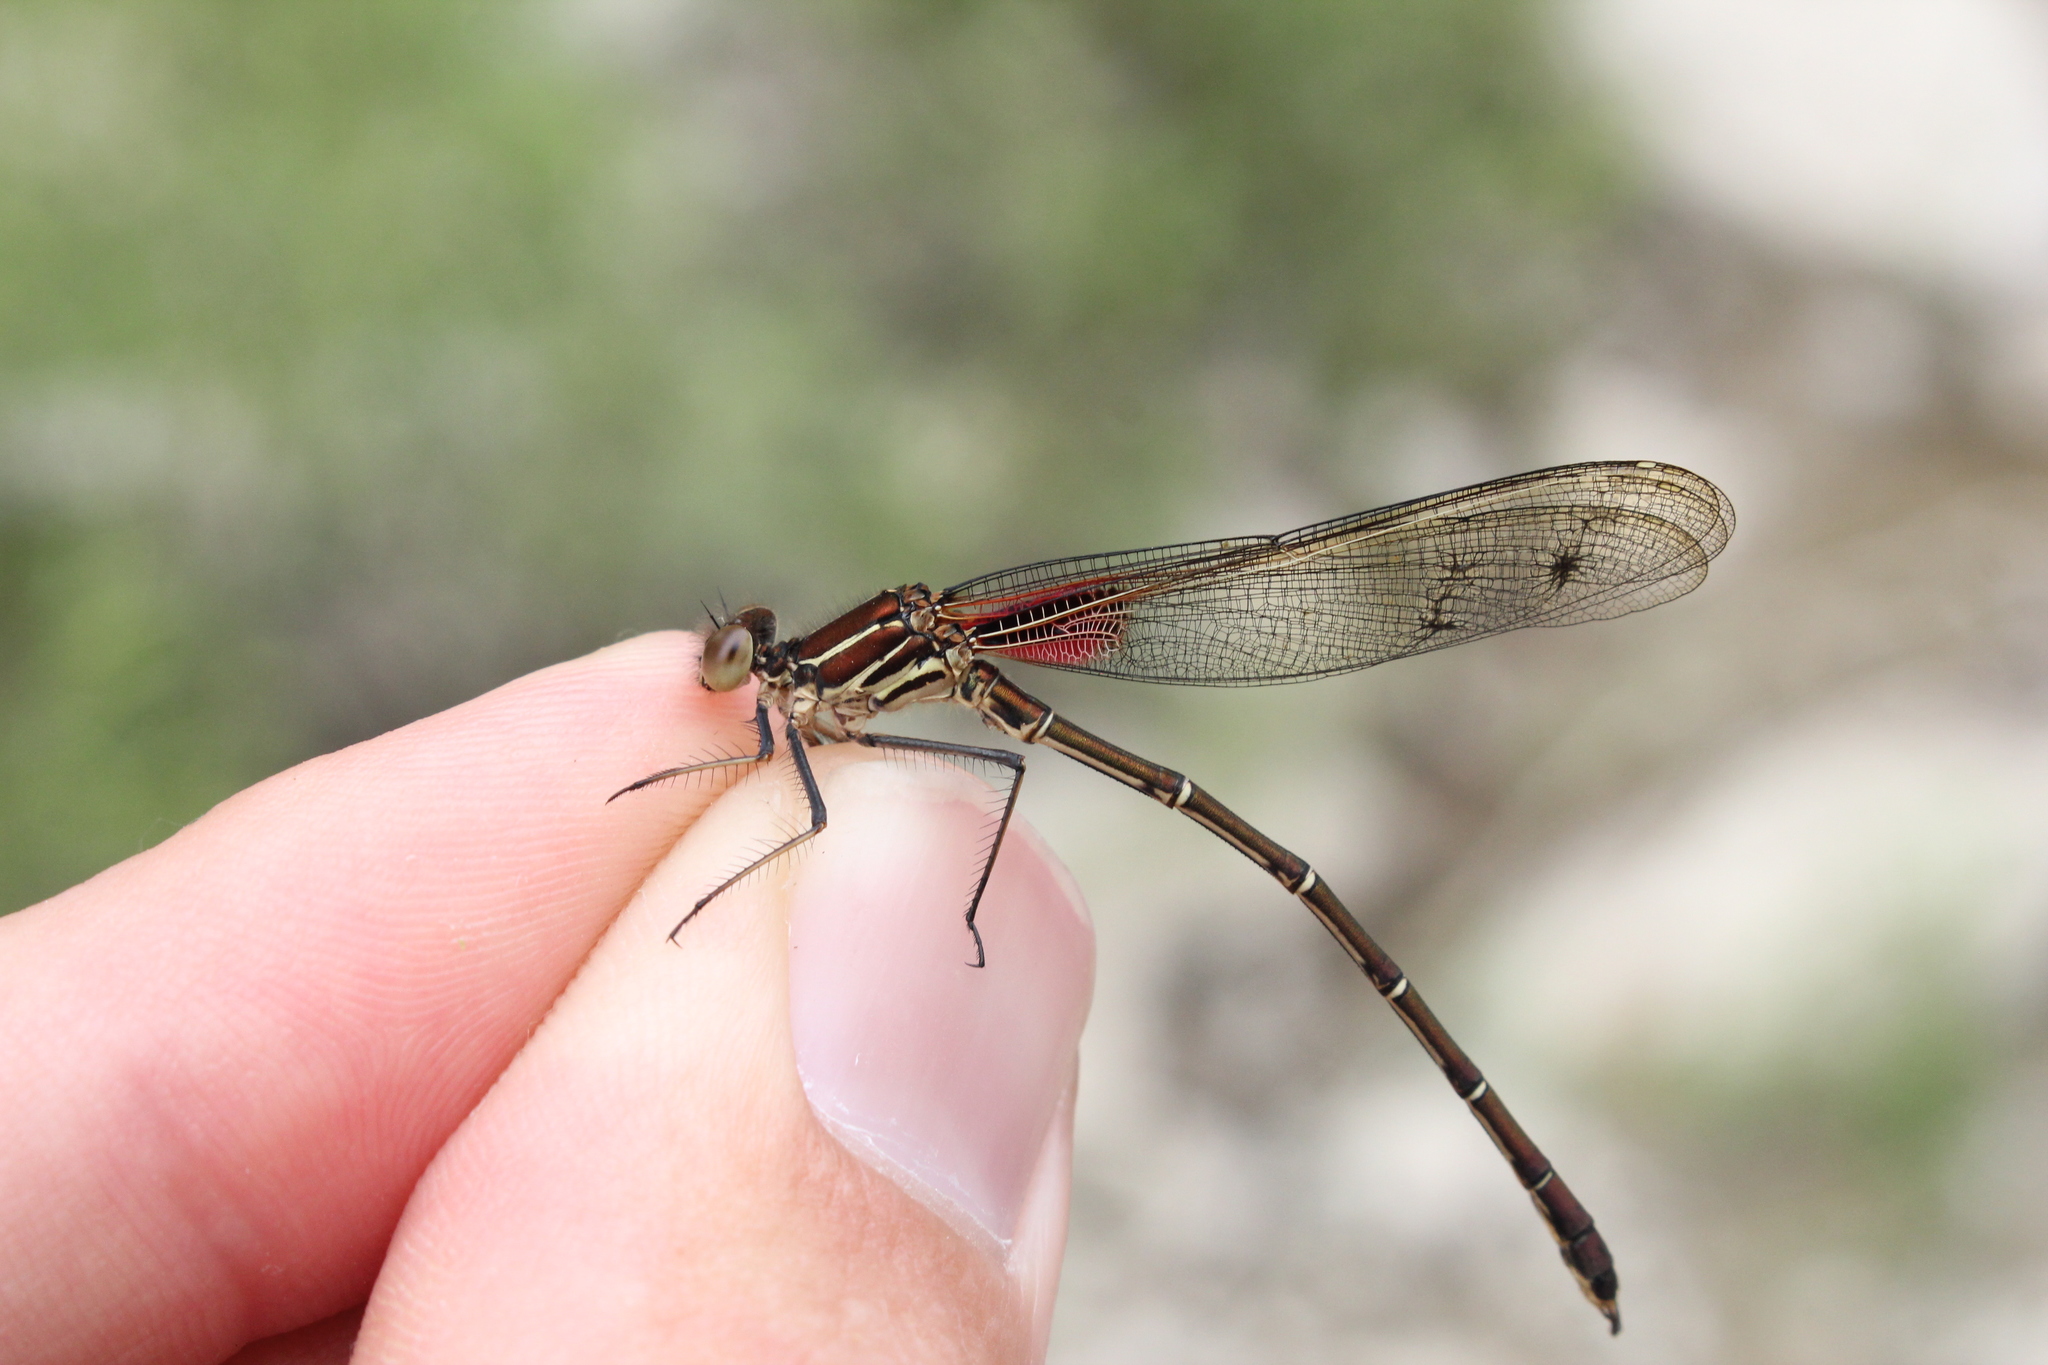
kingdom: Animalia
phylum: Arthropoda
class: Insecta
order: Odonata
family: Calopterygidae
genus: Hetaerina
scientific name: Hetaerina americana
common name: American rubyspot
